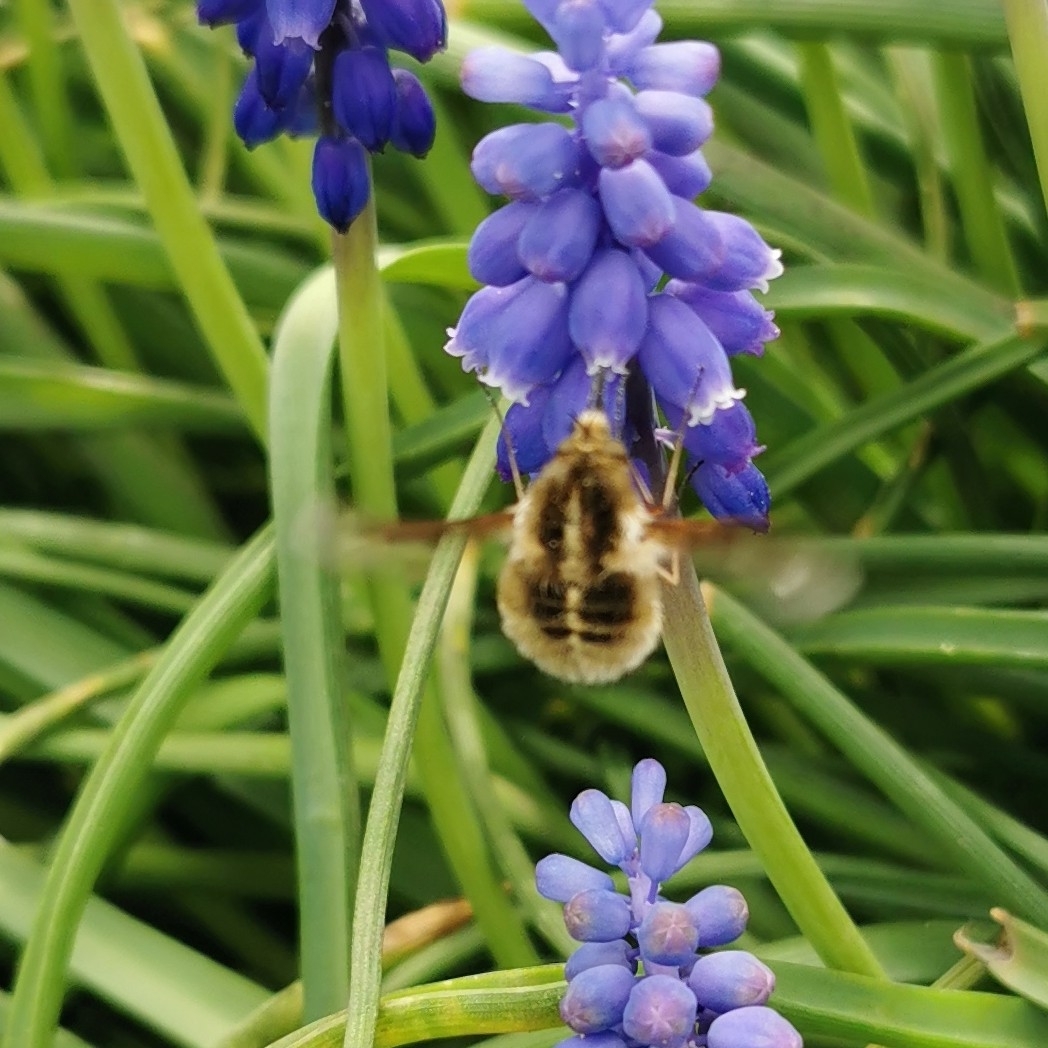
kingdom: Animalia
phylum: Arthropoda
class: Insecta
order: Diptera
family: Bombyliidae
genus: Bombylius
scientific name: Bombylius analis
